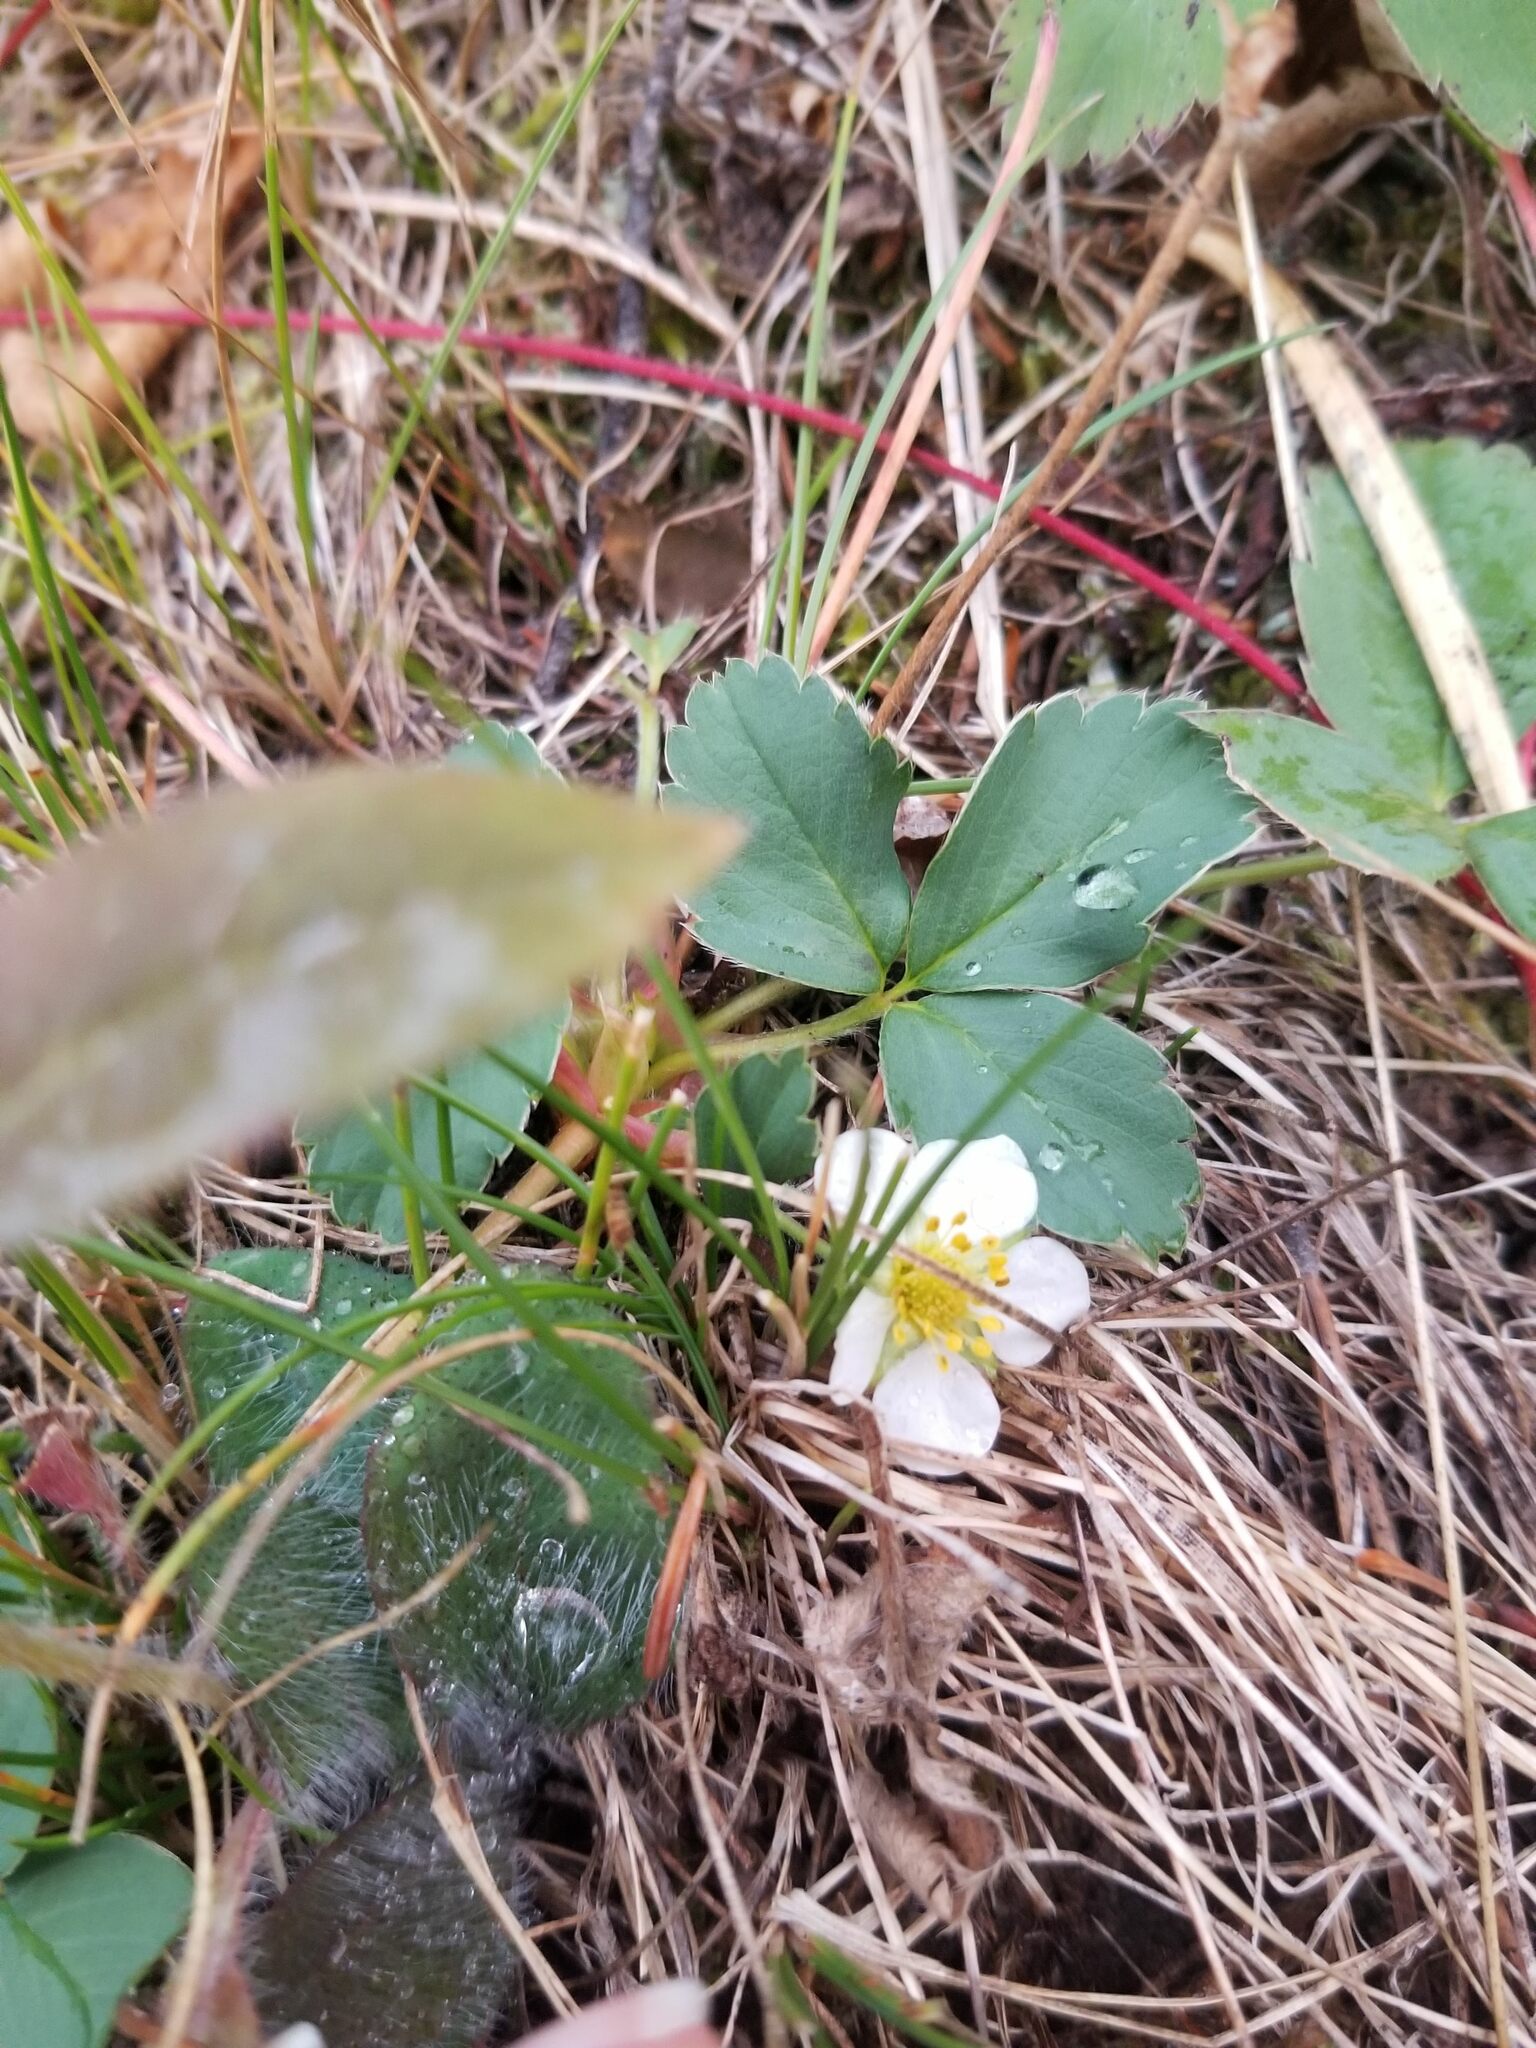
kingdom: Plantae
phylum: Tracheophyta
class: Magnoliopsida
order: Rosales
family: Rosaceae
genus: Fragaria
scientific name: Fragaria virginiana
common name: Thickleaved wild strawberry
